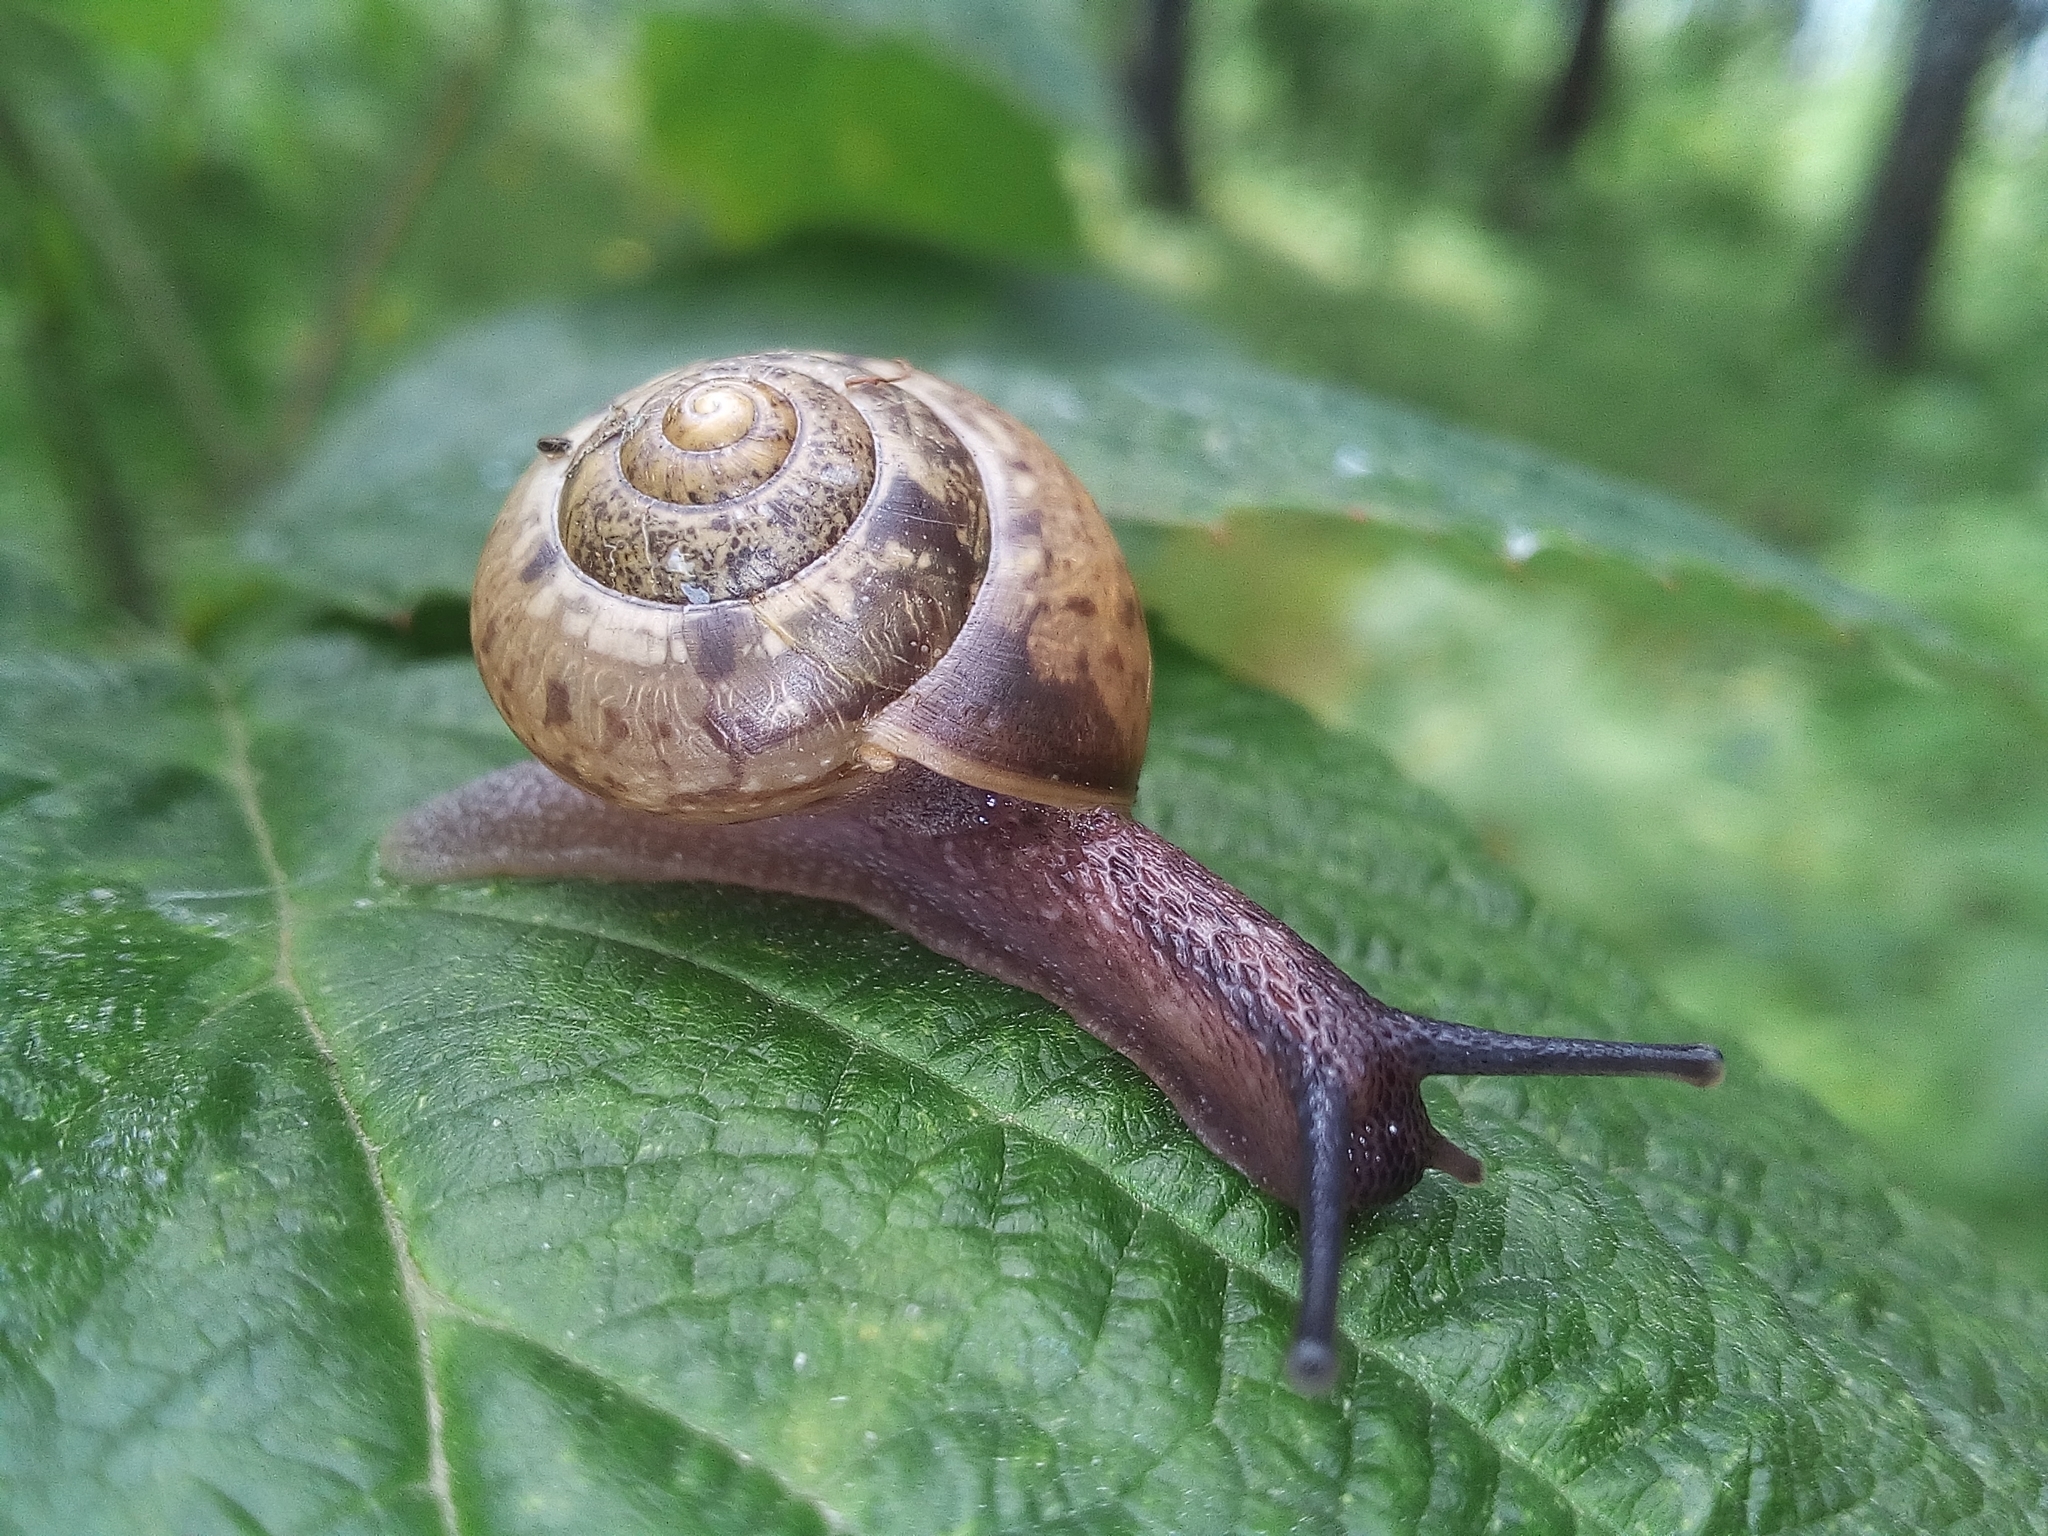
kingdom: Animalia
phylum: Mollusca
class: Gastropoda
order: Stylommatophora
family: Camaenidae
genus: Fruticicola
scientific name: Fruticicola fruticum
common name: Bush snail
